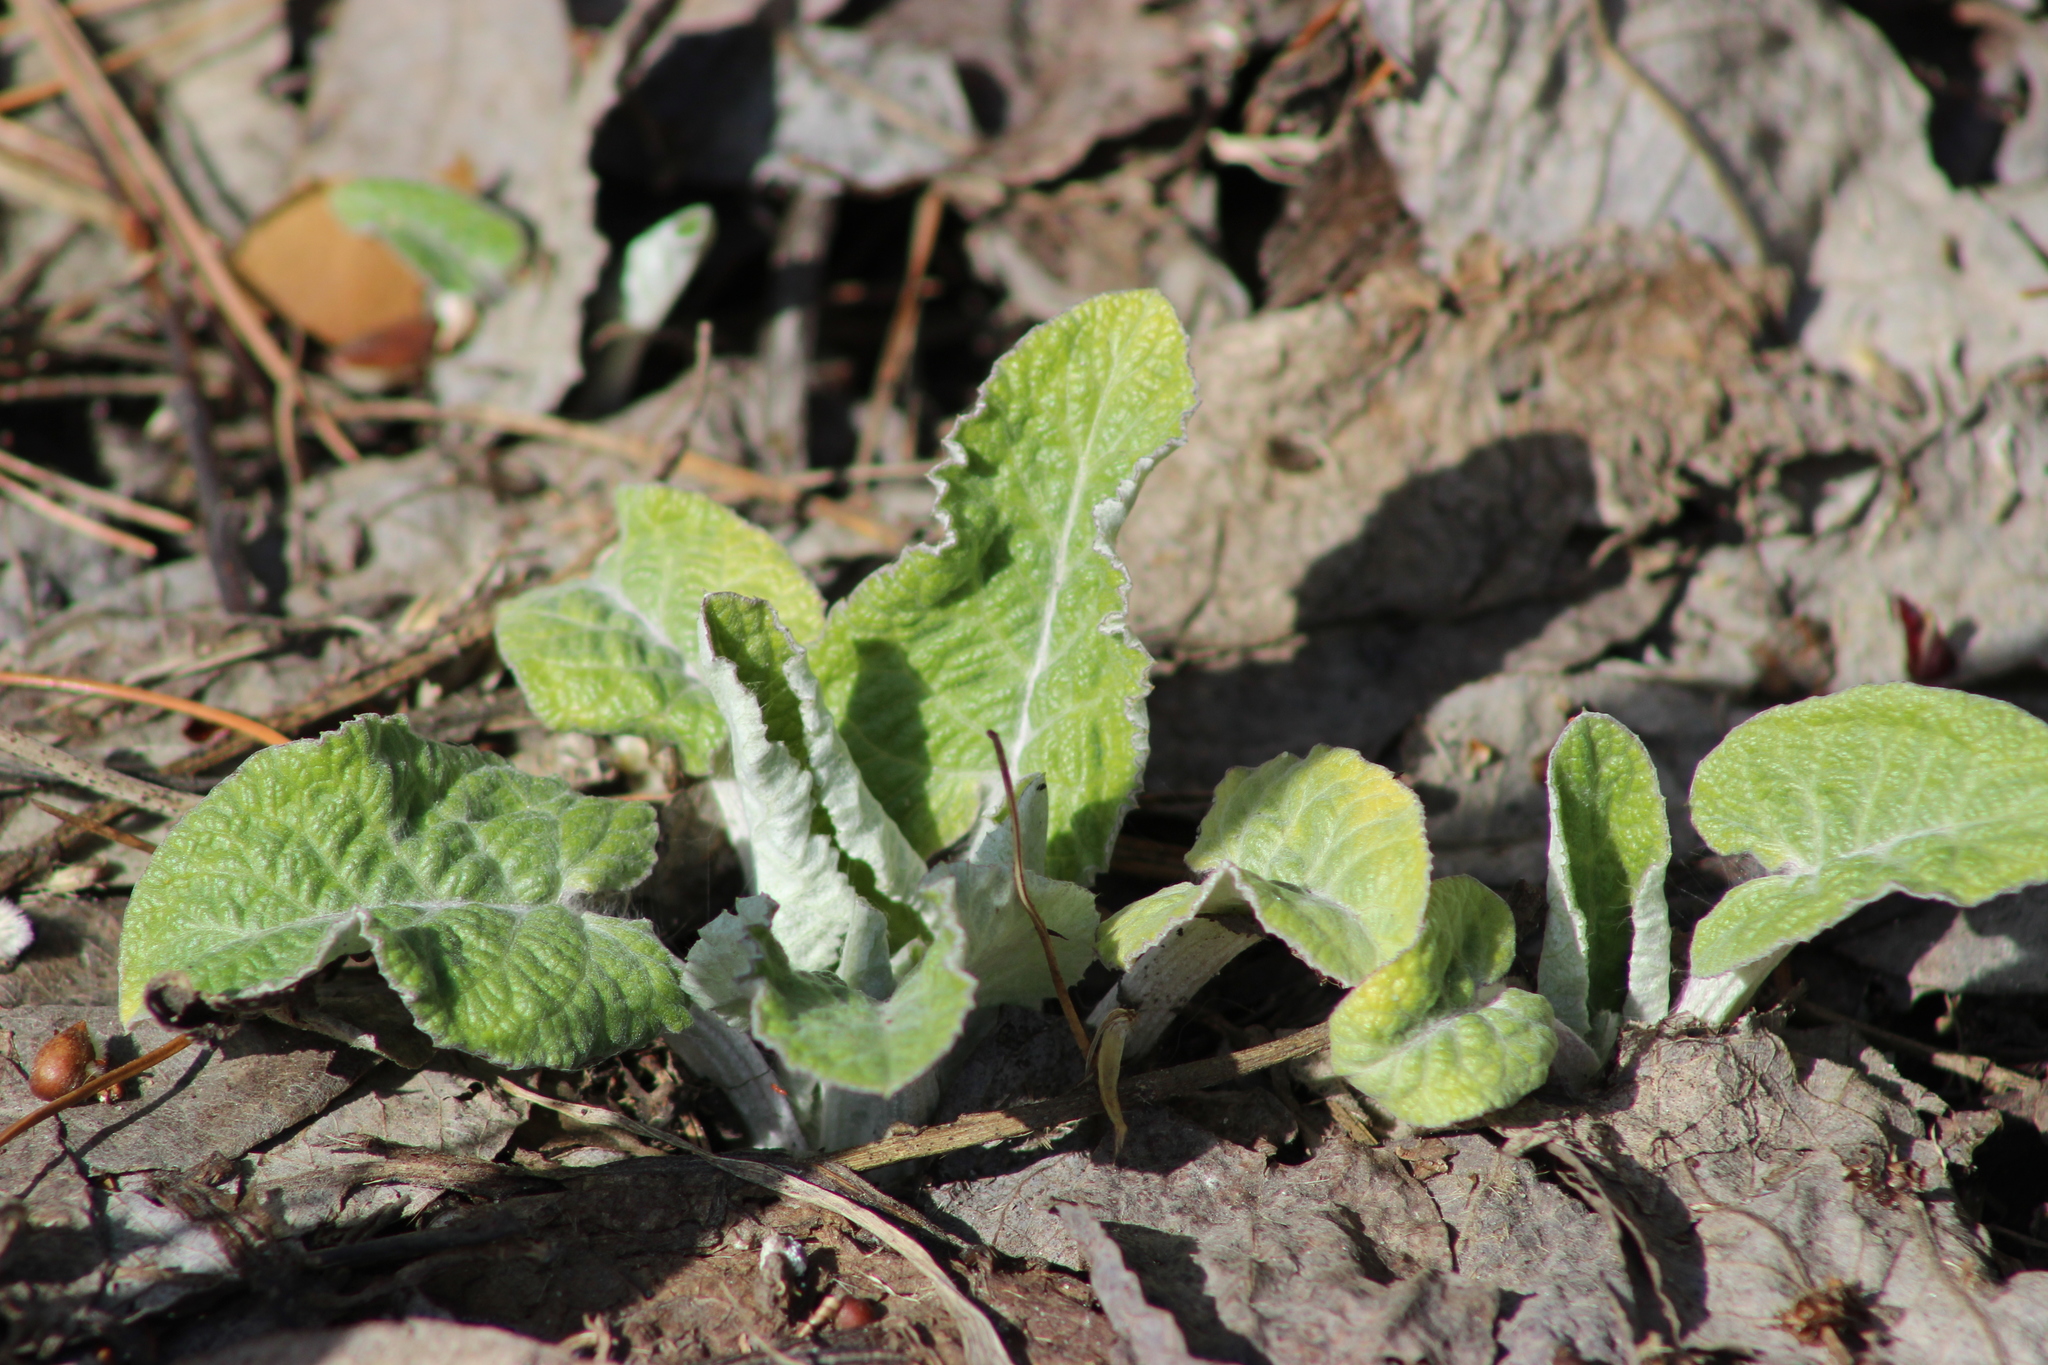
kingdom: Plantae
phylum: Tracheophyta
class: Magnoliopsida
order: Asterales
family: Asteraceae
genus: Arctium
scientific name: Arctium tomentosum
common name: Woolly burdock
